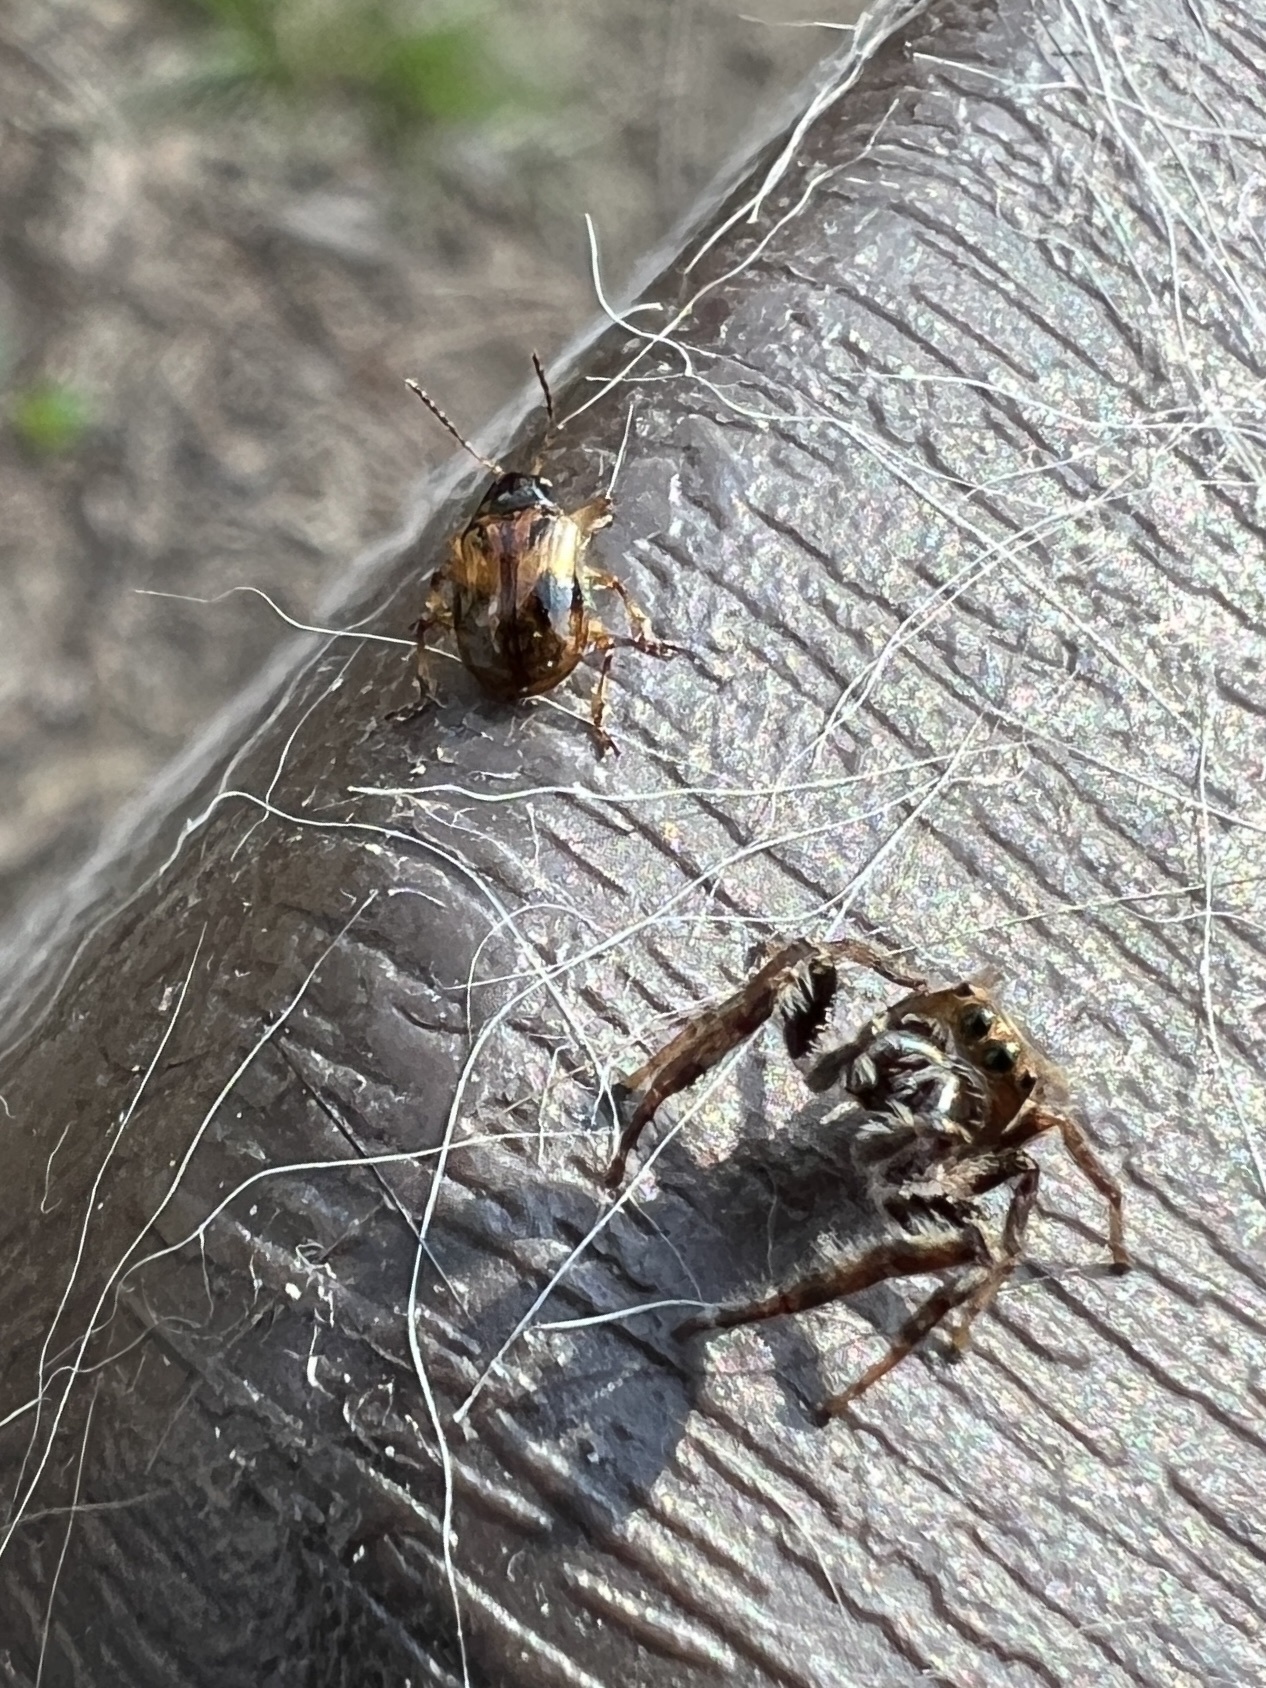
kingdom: Animalia
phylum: Arthropoda
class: Arachnida
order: Araneae
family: Salticidae
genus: Eris
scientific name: Eris militaris
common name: Bronze jumper
